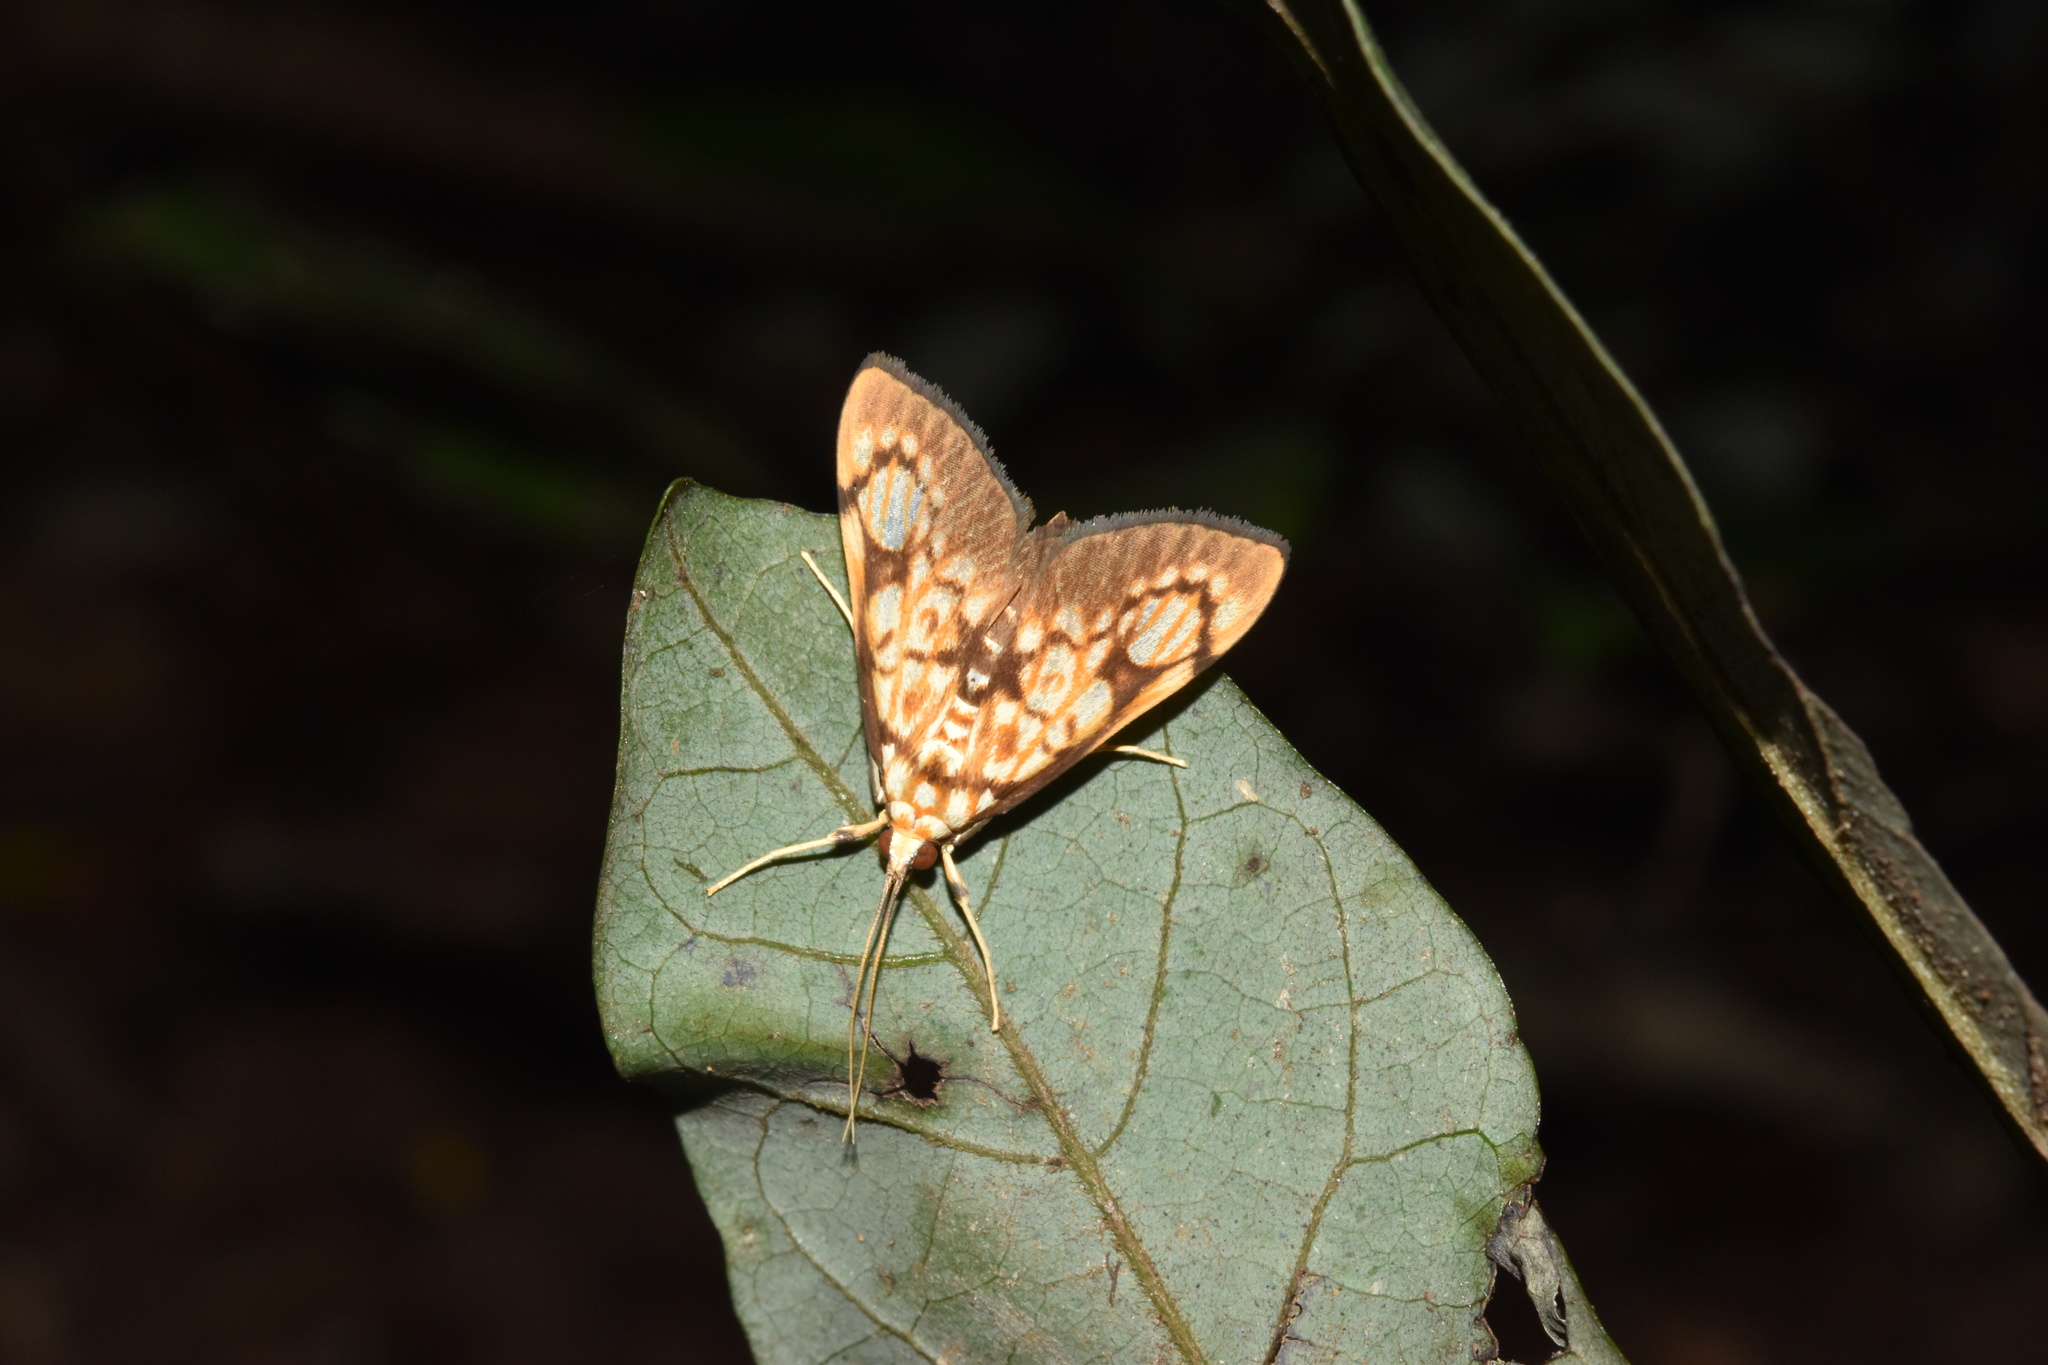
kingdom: Animalia
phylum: Arthropoda
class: Insecta
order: Lepidoptera
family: Crambidae
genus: Chalcidoptera
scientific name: Chalcidoptera rufilinealis
